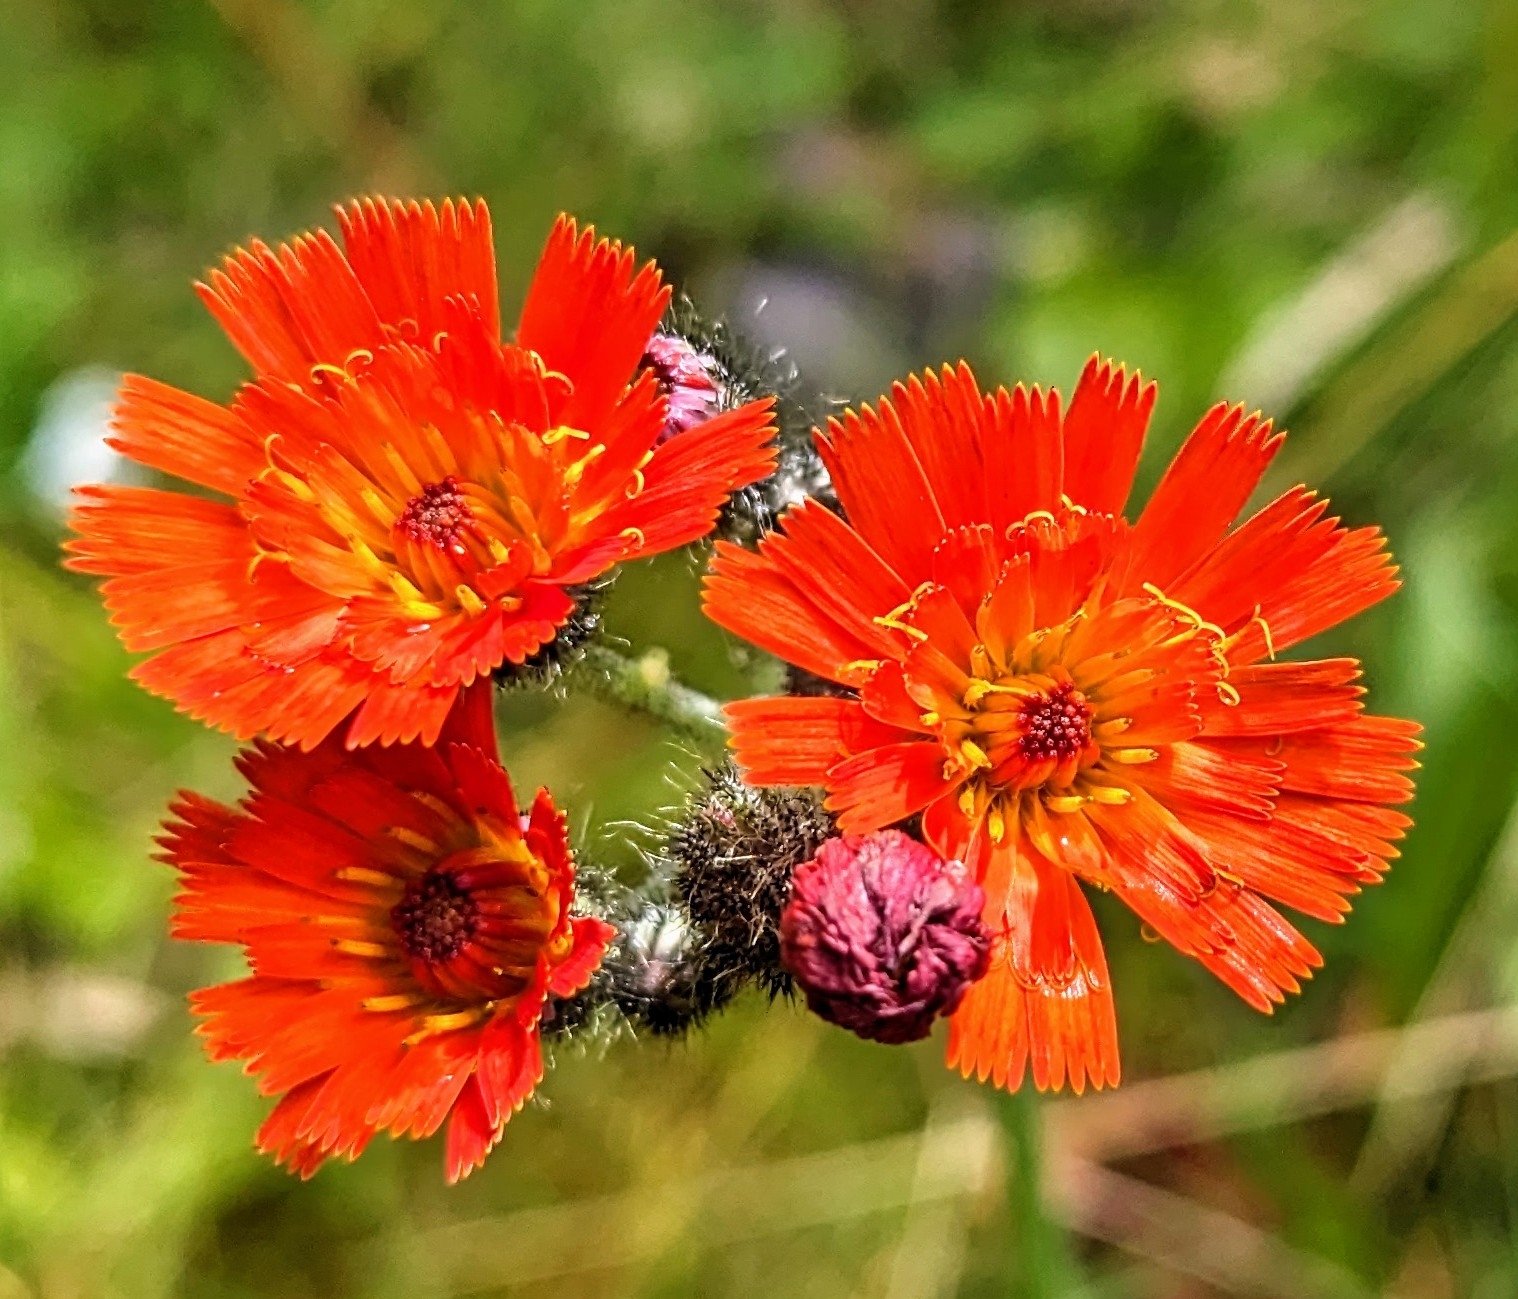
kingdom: Plantae
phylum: Tracheophyta
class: Magnoliopsida
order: Asterales
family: Asteraceae
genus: Pilosella
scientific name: Pilosella aurantiaca
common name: Fox-and-cubs
